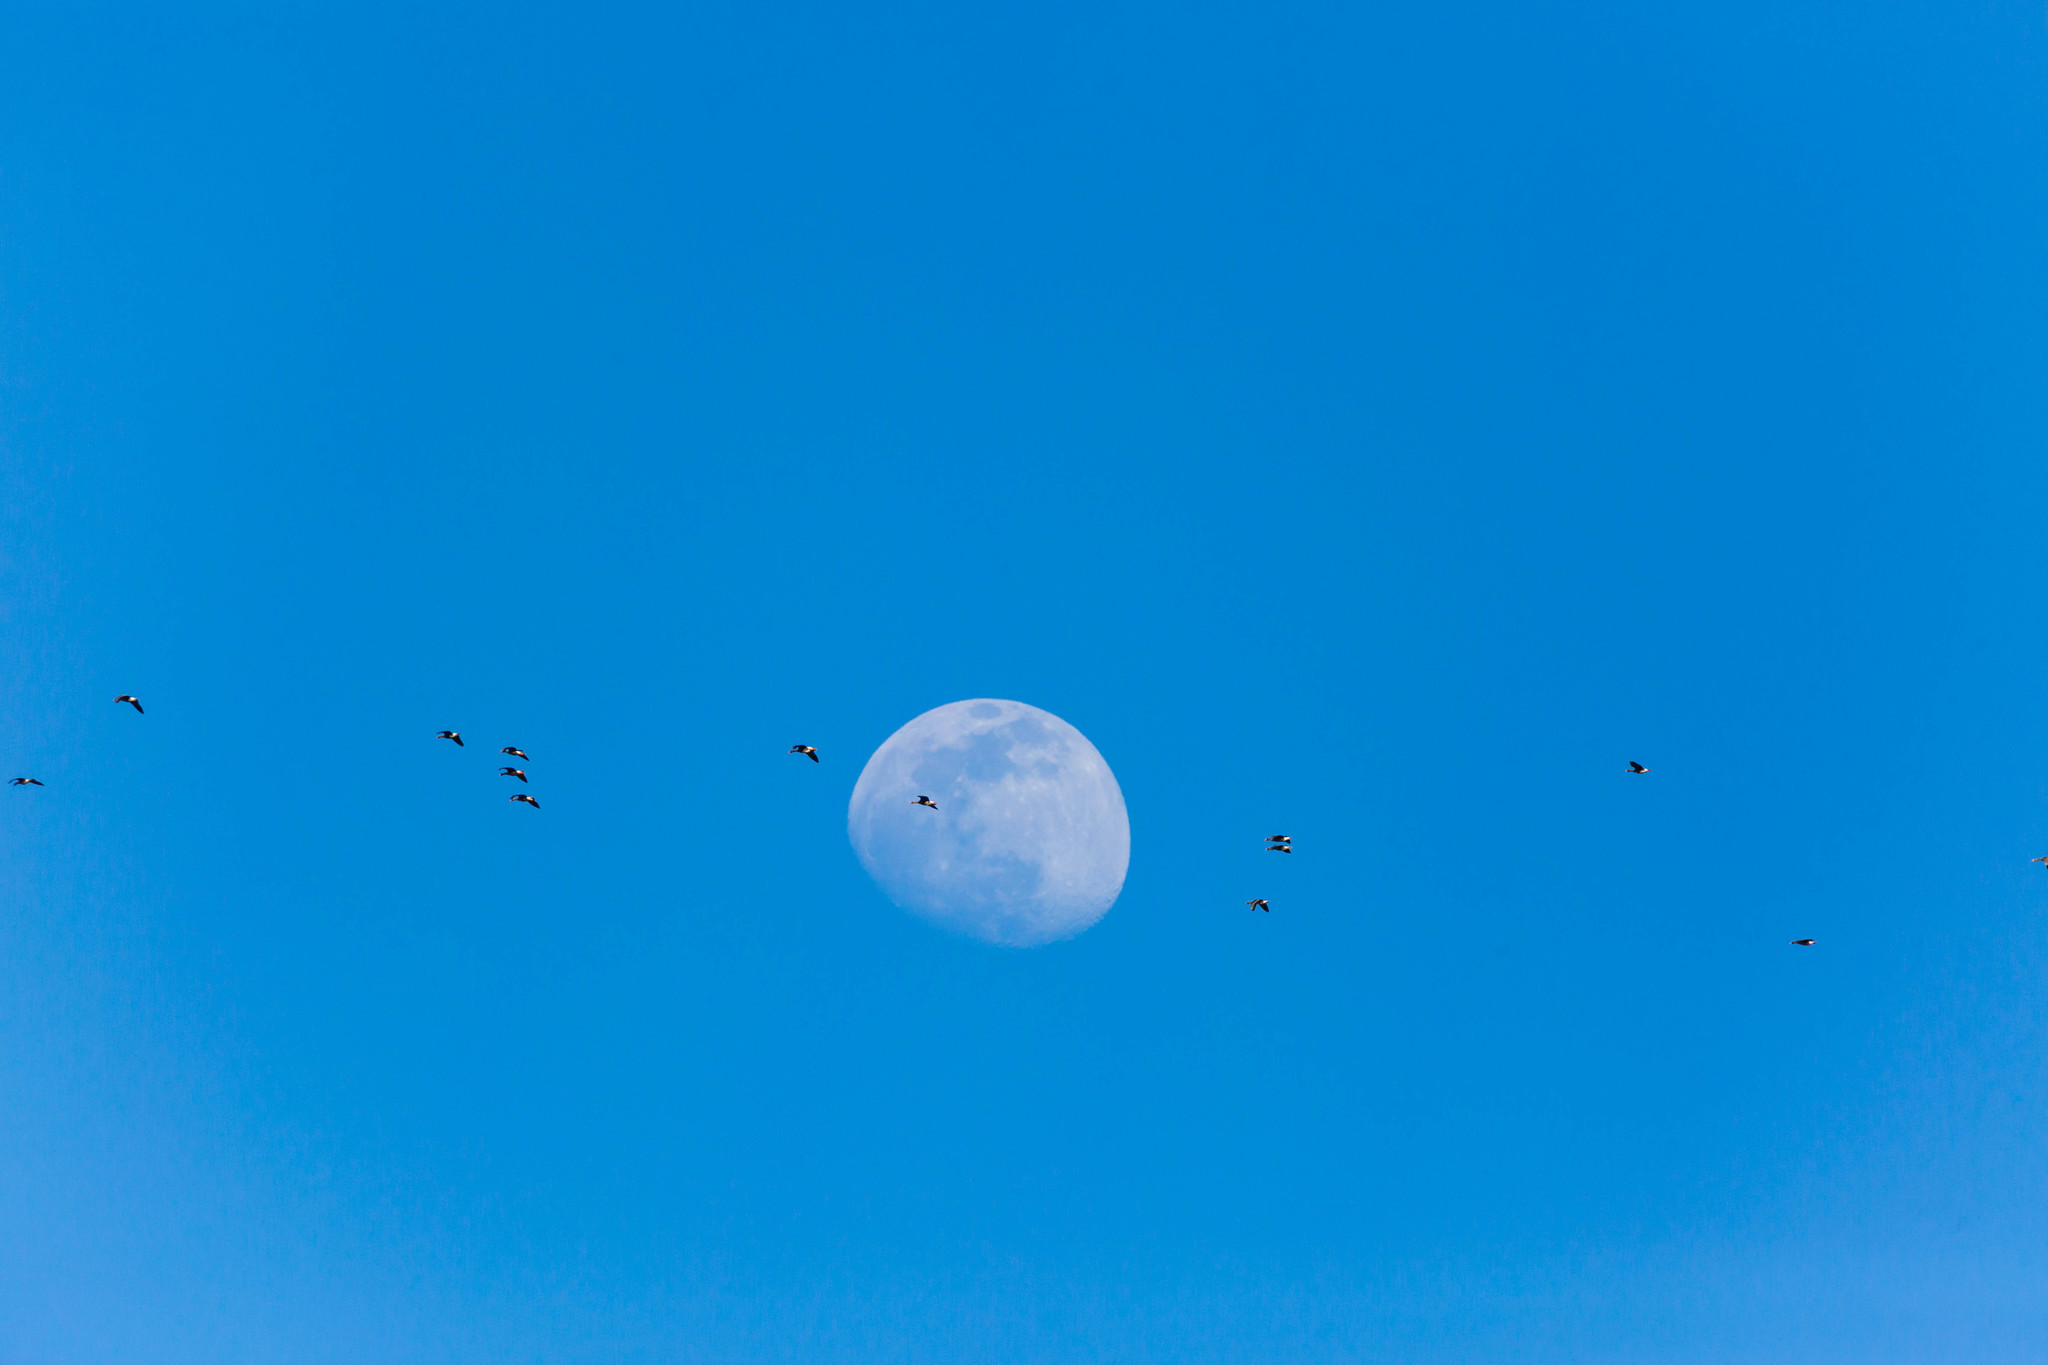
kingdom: Animalia
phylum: Chordata
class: Aves
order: Anseriformes
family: Anatidae
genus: Anser
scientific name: Anser albifrons
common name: Greater white-fronted goose
